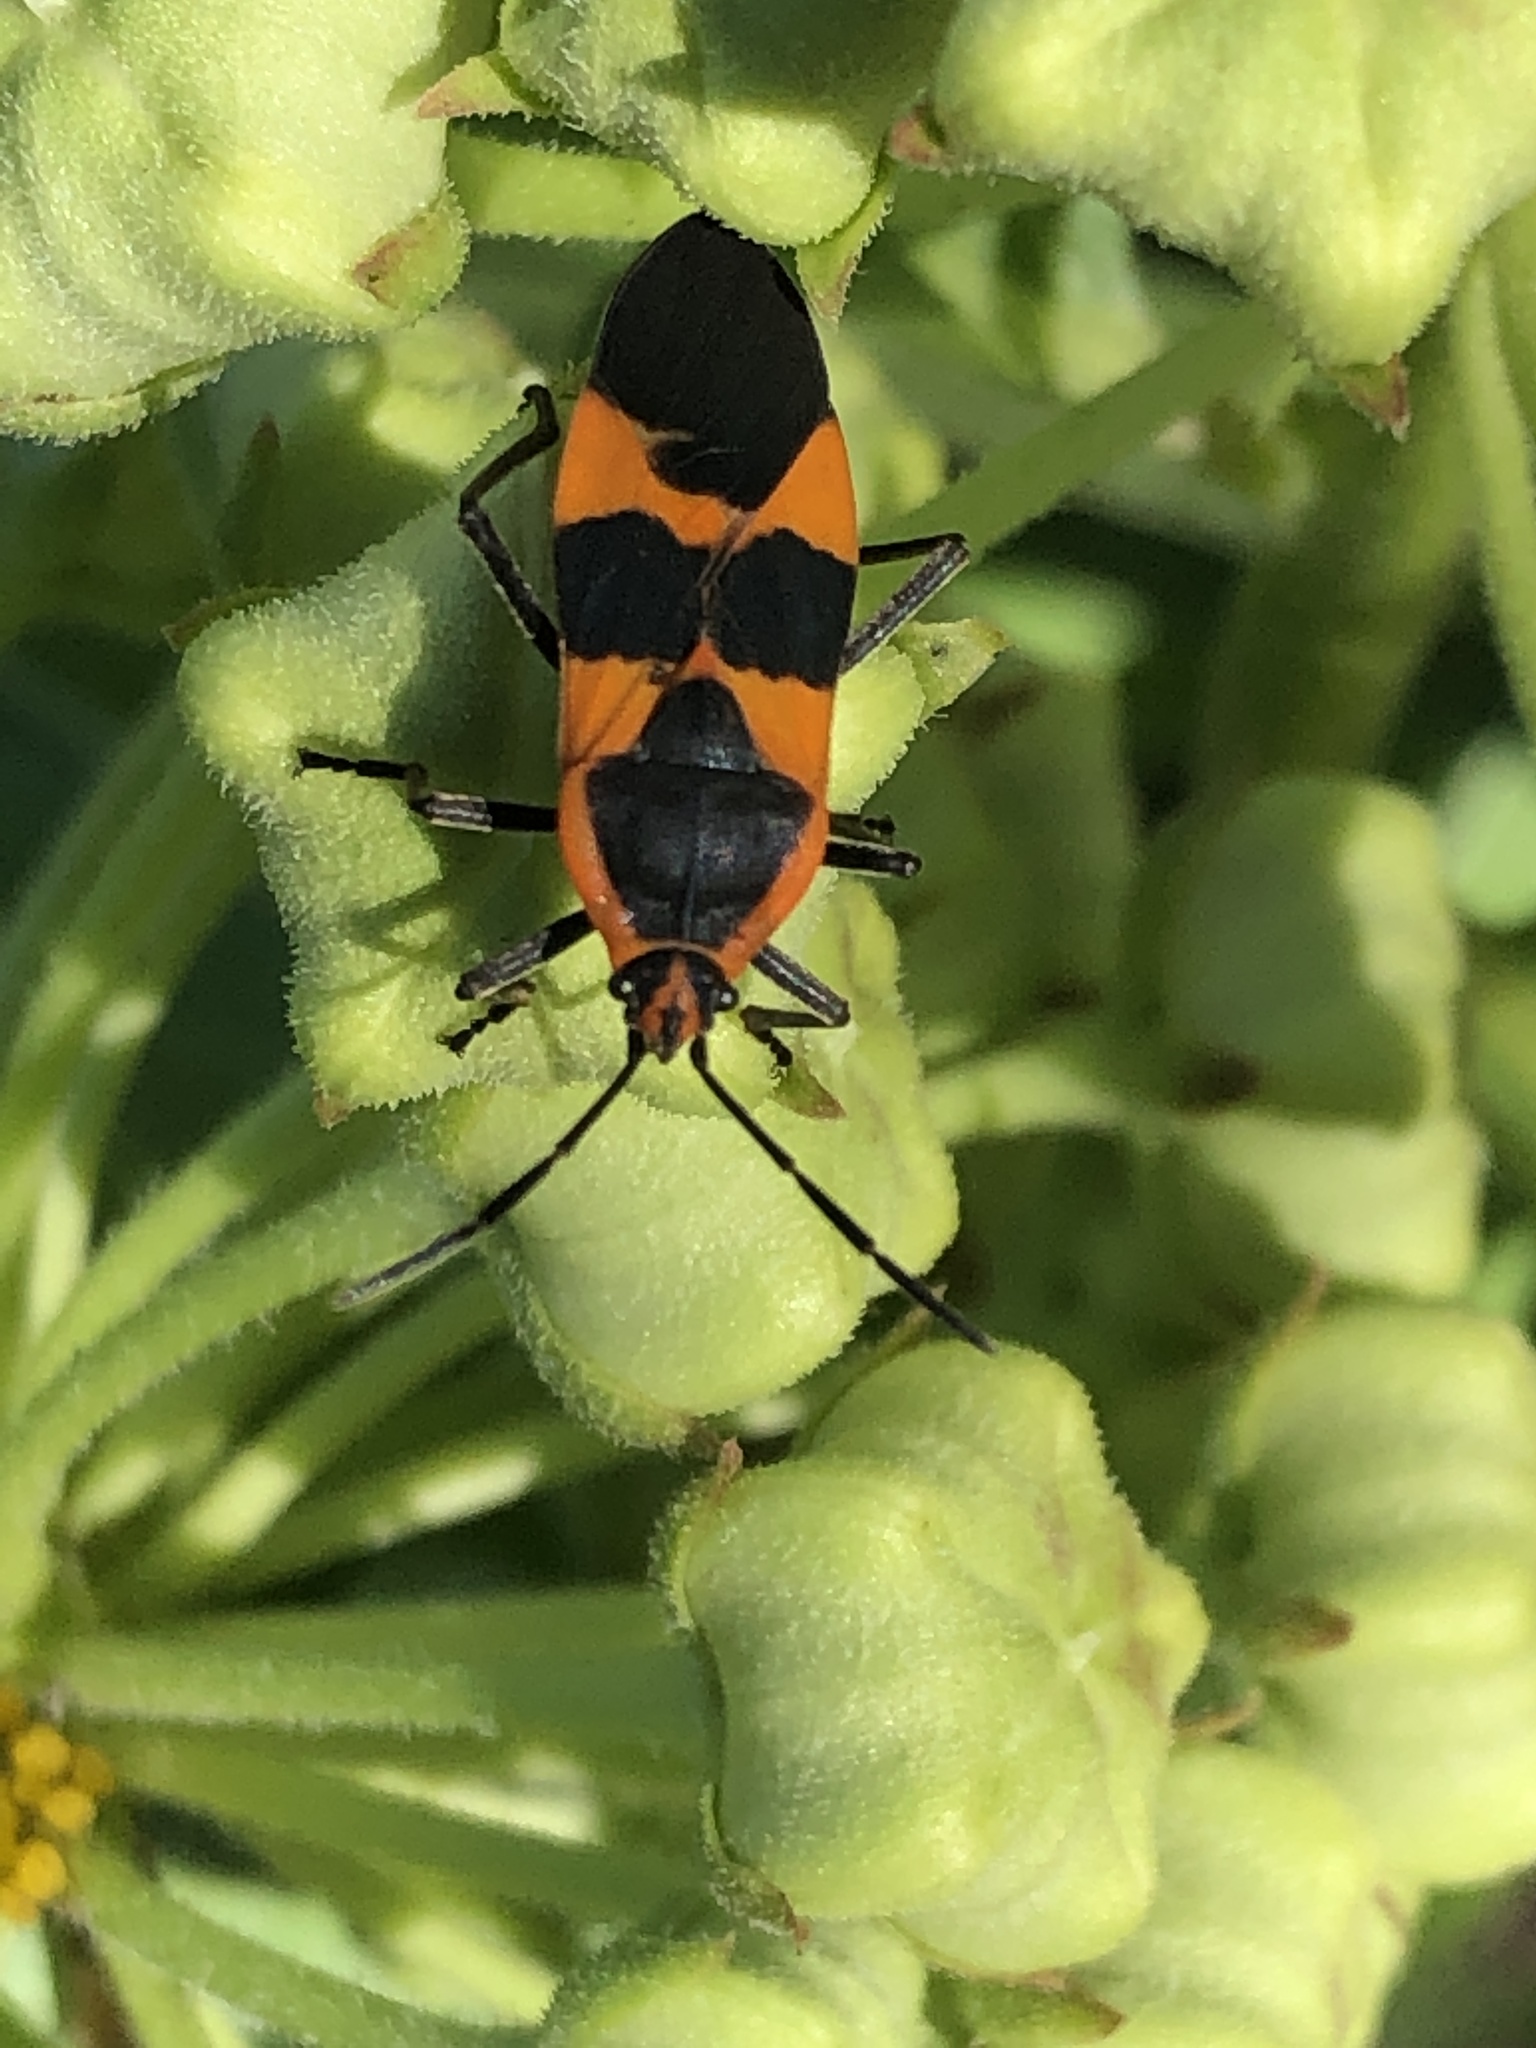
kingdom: Animalia
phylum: Arthropoda
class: Insecta
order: Hemiptera
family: Lygaeidae
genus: Oncopeltus
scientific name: Oncopeltus fasciatus
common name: Large milkweed bug
